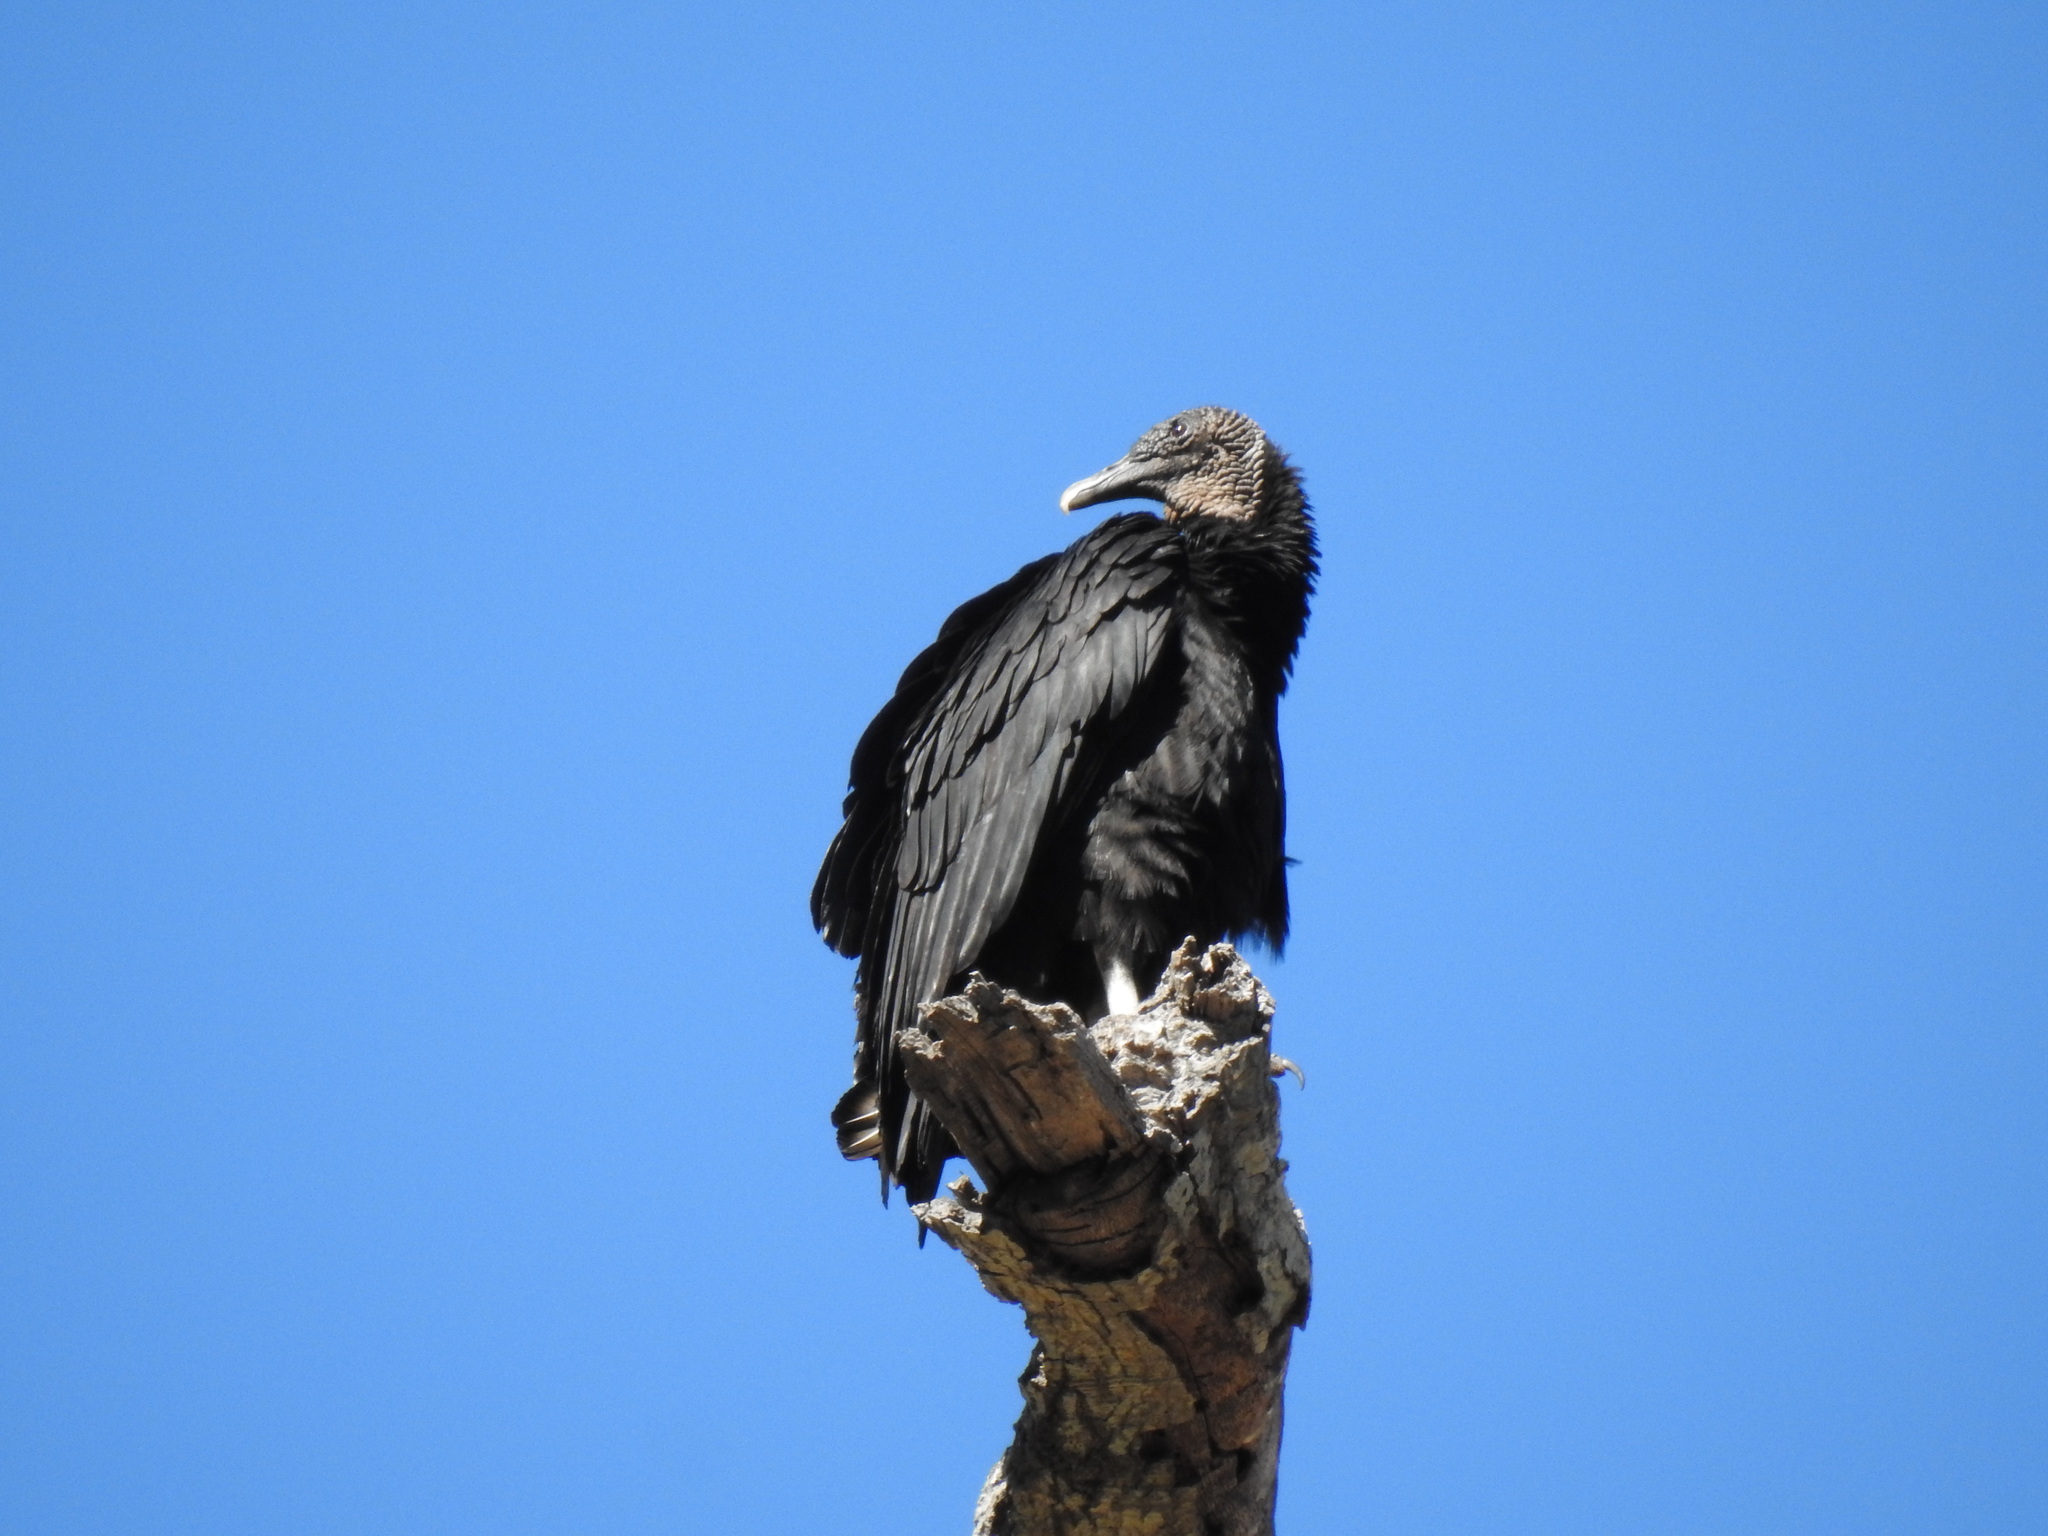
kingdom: Animalia
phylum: Chordata
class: Aves
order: Accipitriformes
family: Cathartidae
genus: Coragyps
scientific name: Coragyps atratus
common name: Black vulture
